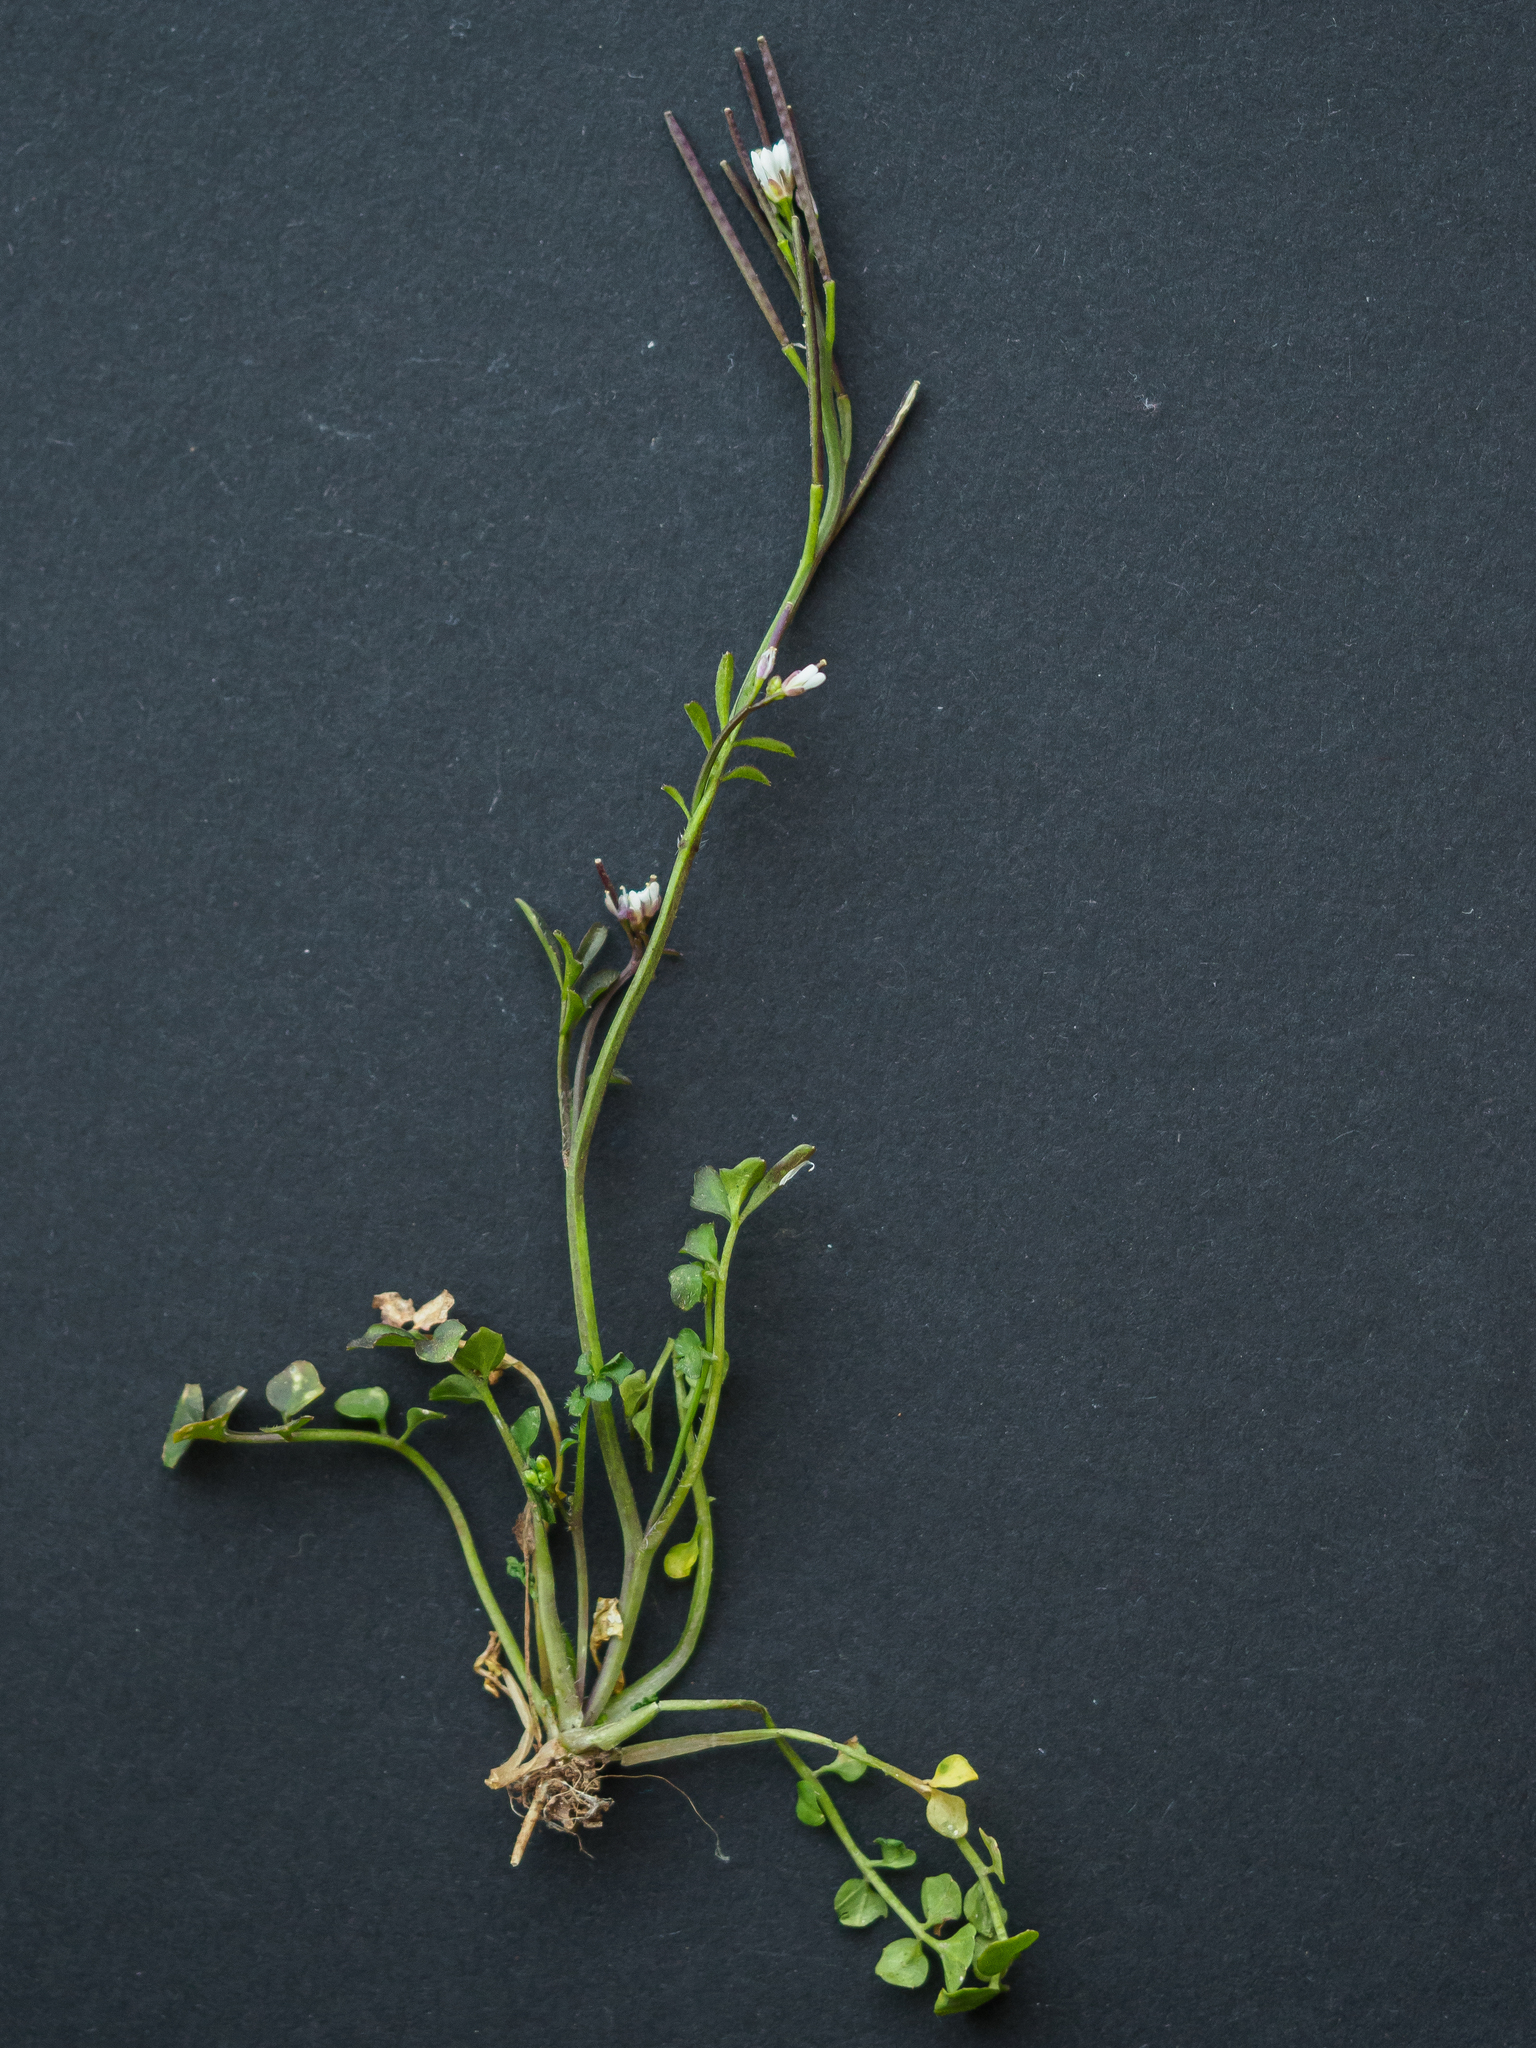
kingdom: Plantae
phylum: Tracheophyta
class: Magnoliopsida
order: Brassicales
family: Brassicaceae
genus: Cardamine
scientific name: Cardamine hirsuta
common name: Hairy bittercress
